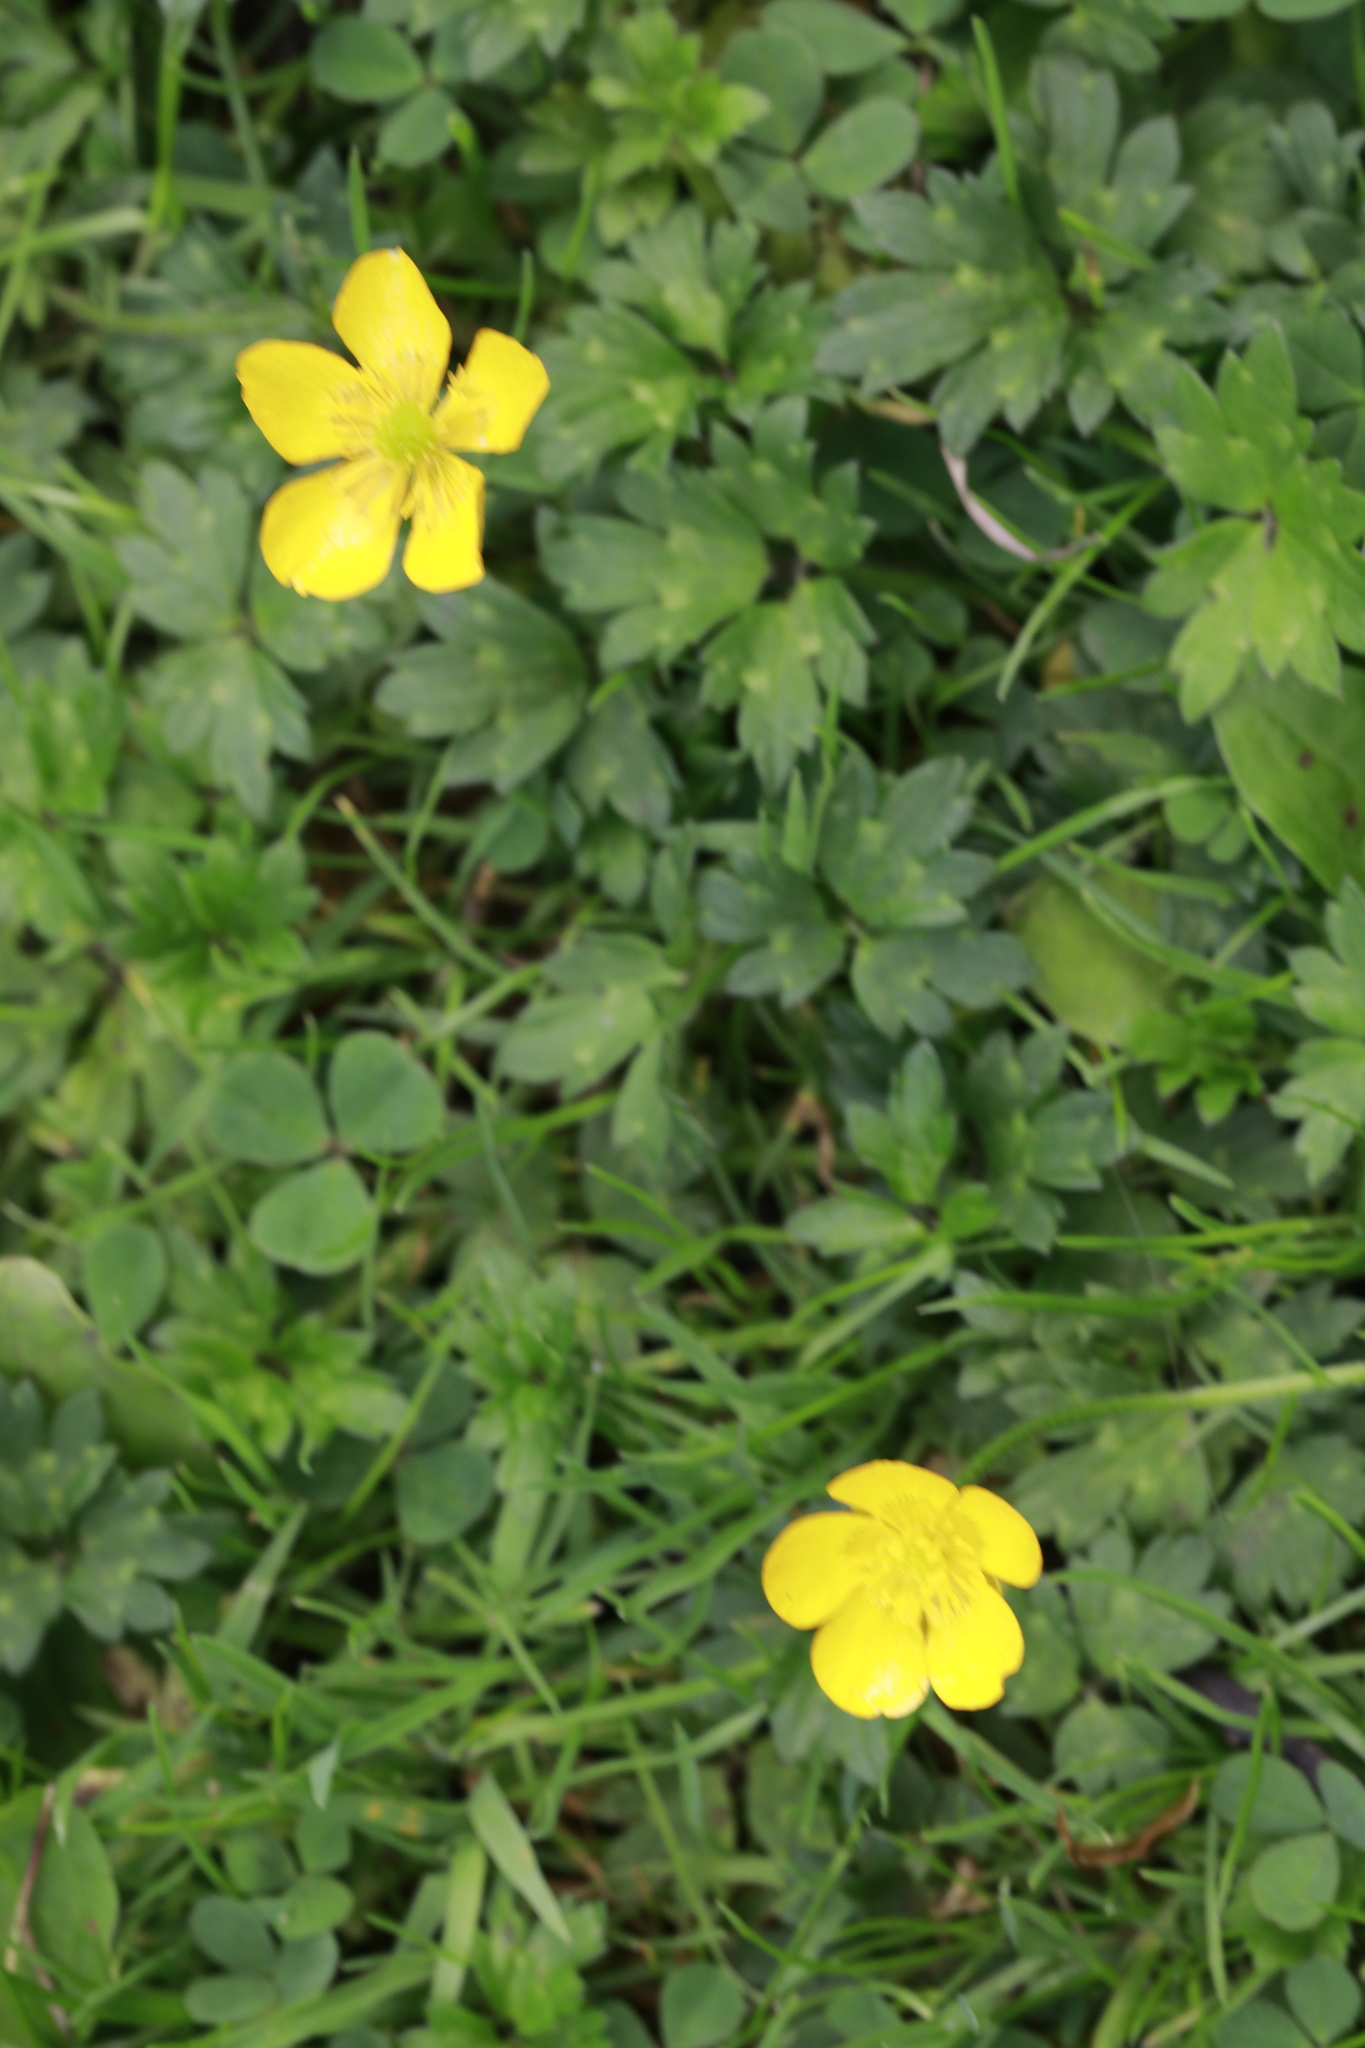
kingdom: Plantae
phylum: Tracheophyta
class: Magnoliopsida
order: Ranunculales
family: Ranunculaceae
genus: Ranunculus
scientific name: Ranunculus repens
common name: Creeping buttercup
